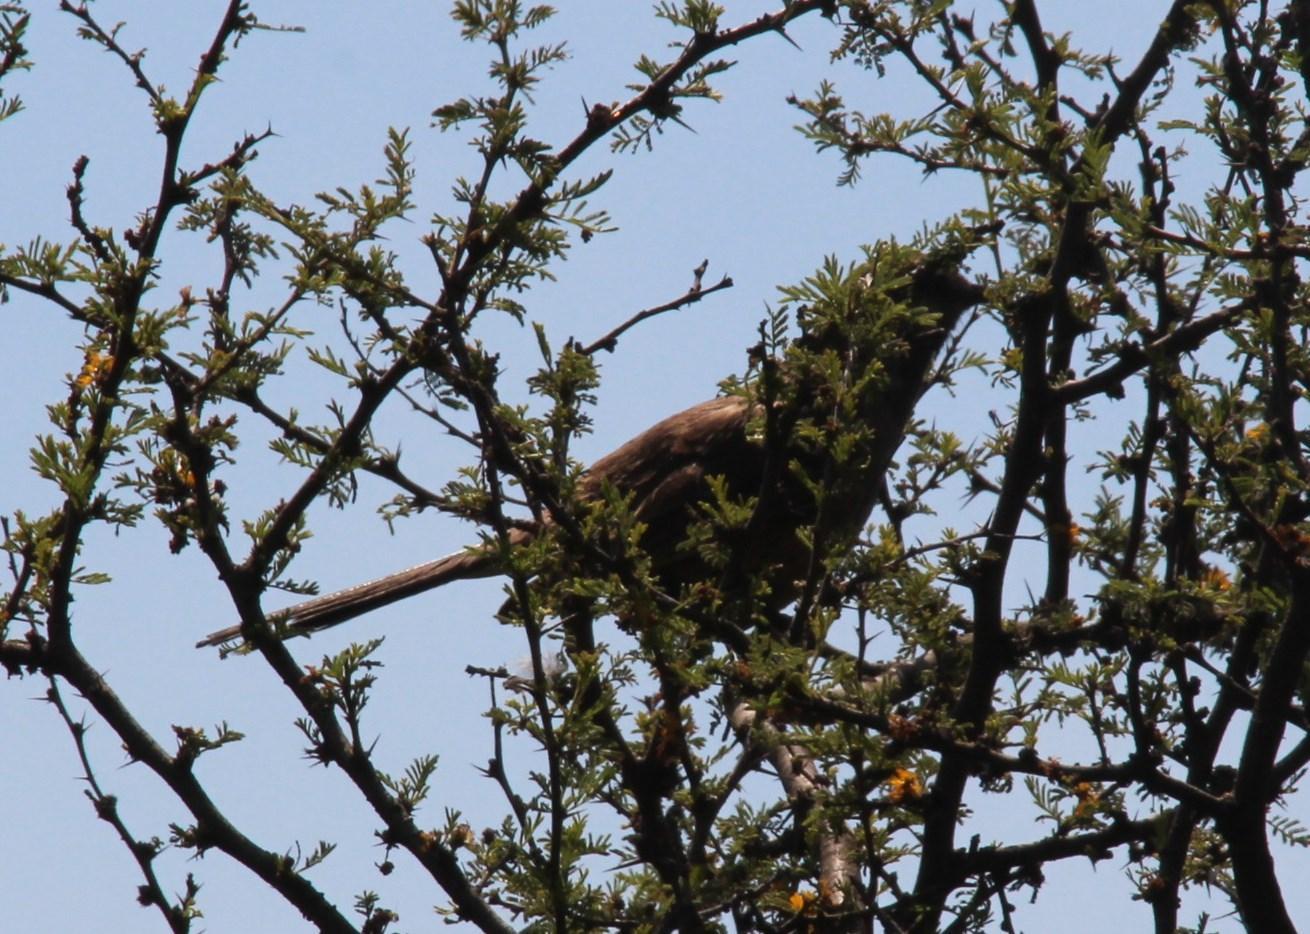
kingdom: Animalia
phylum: Chordata
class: Aves
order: Passeriformes
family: Mimidae
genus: Mimus
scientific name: Mimus thenca
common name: Chilean mockingbird
